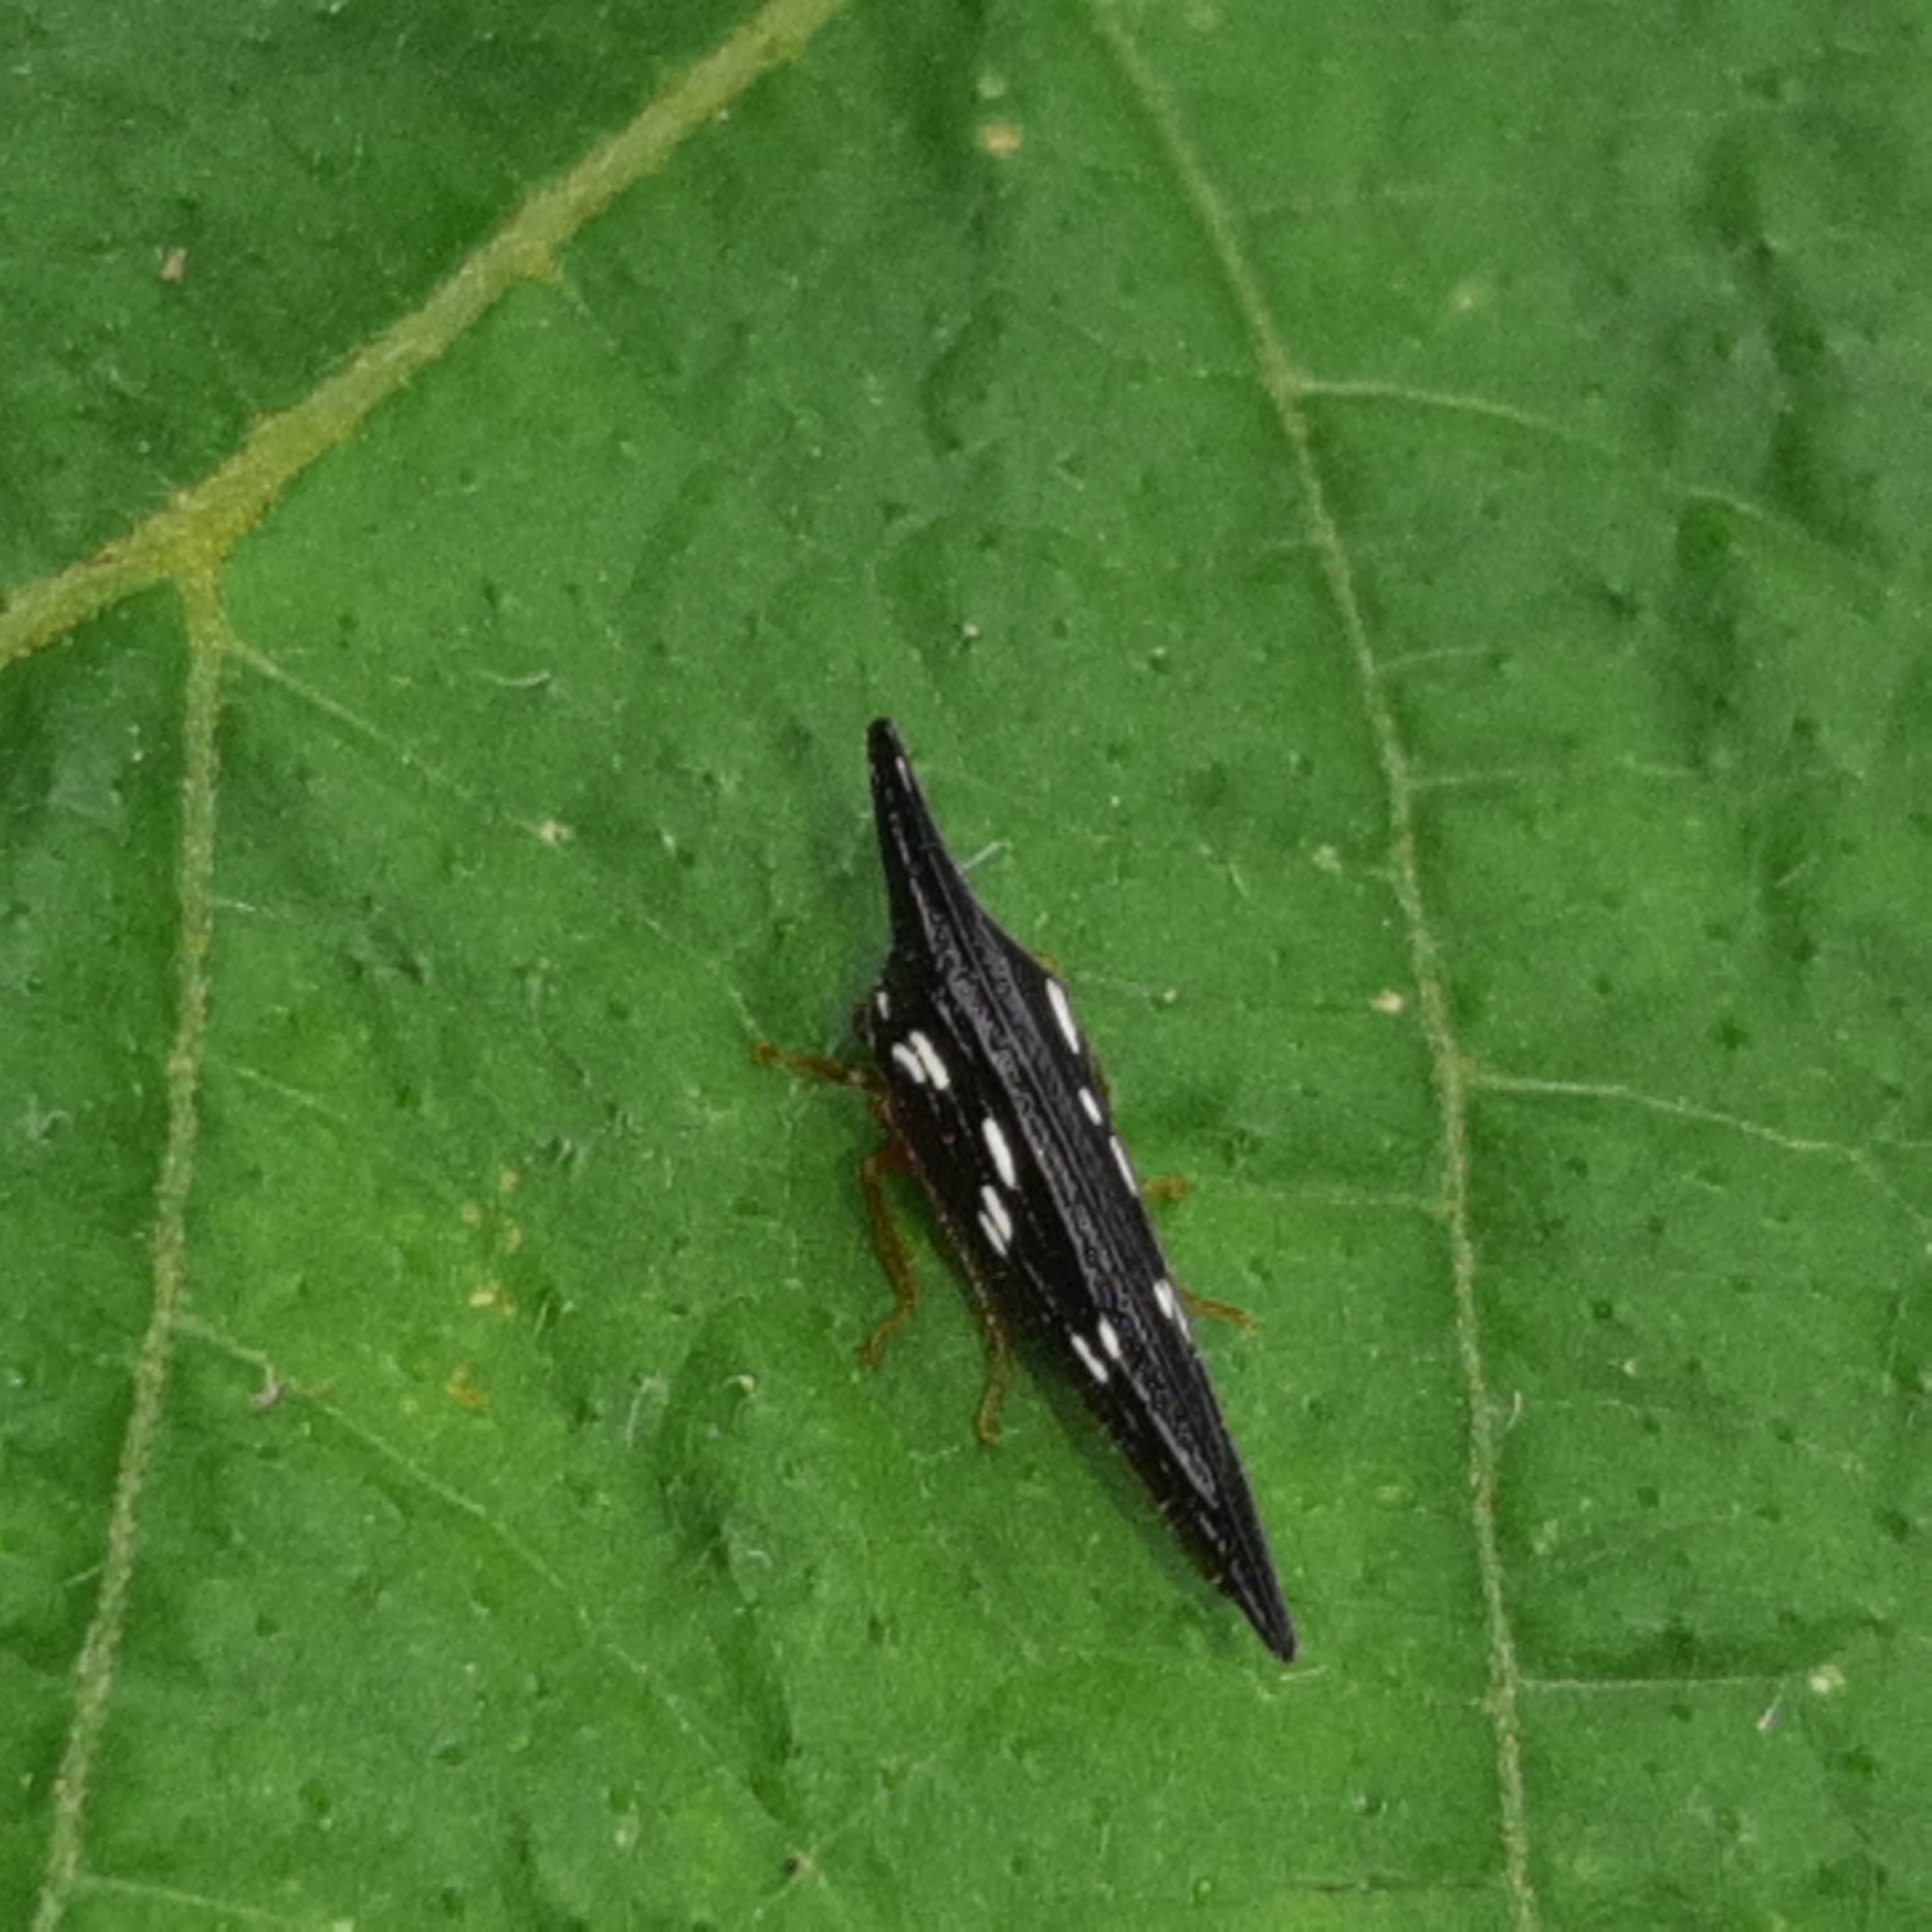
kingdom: Animalia
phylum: Arthropoda
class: Insecta
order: Hemiptera
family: Membracidae
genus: Polyglypta
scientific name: Polyglypta costata
